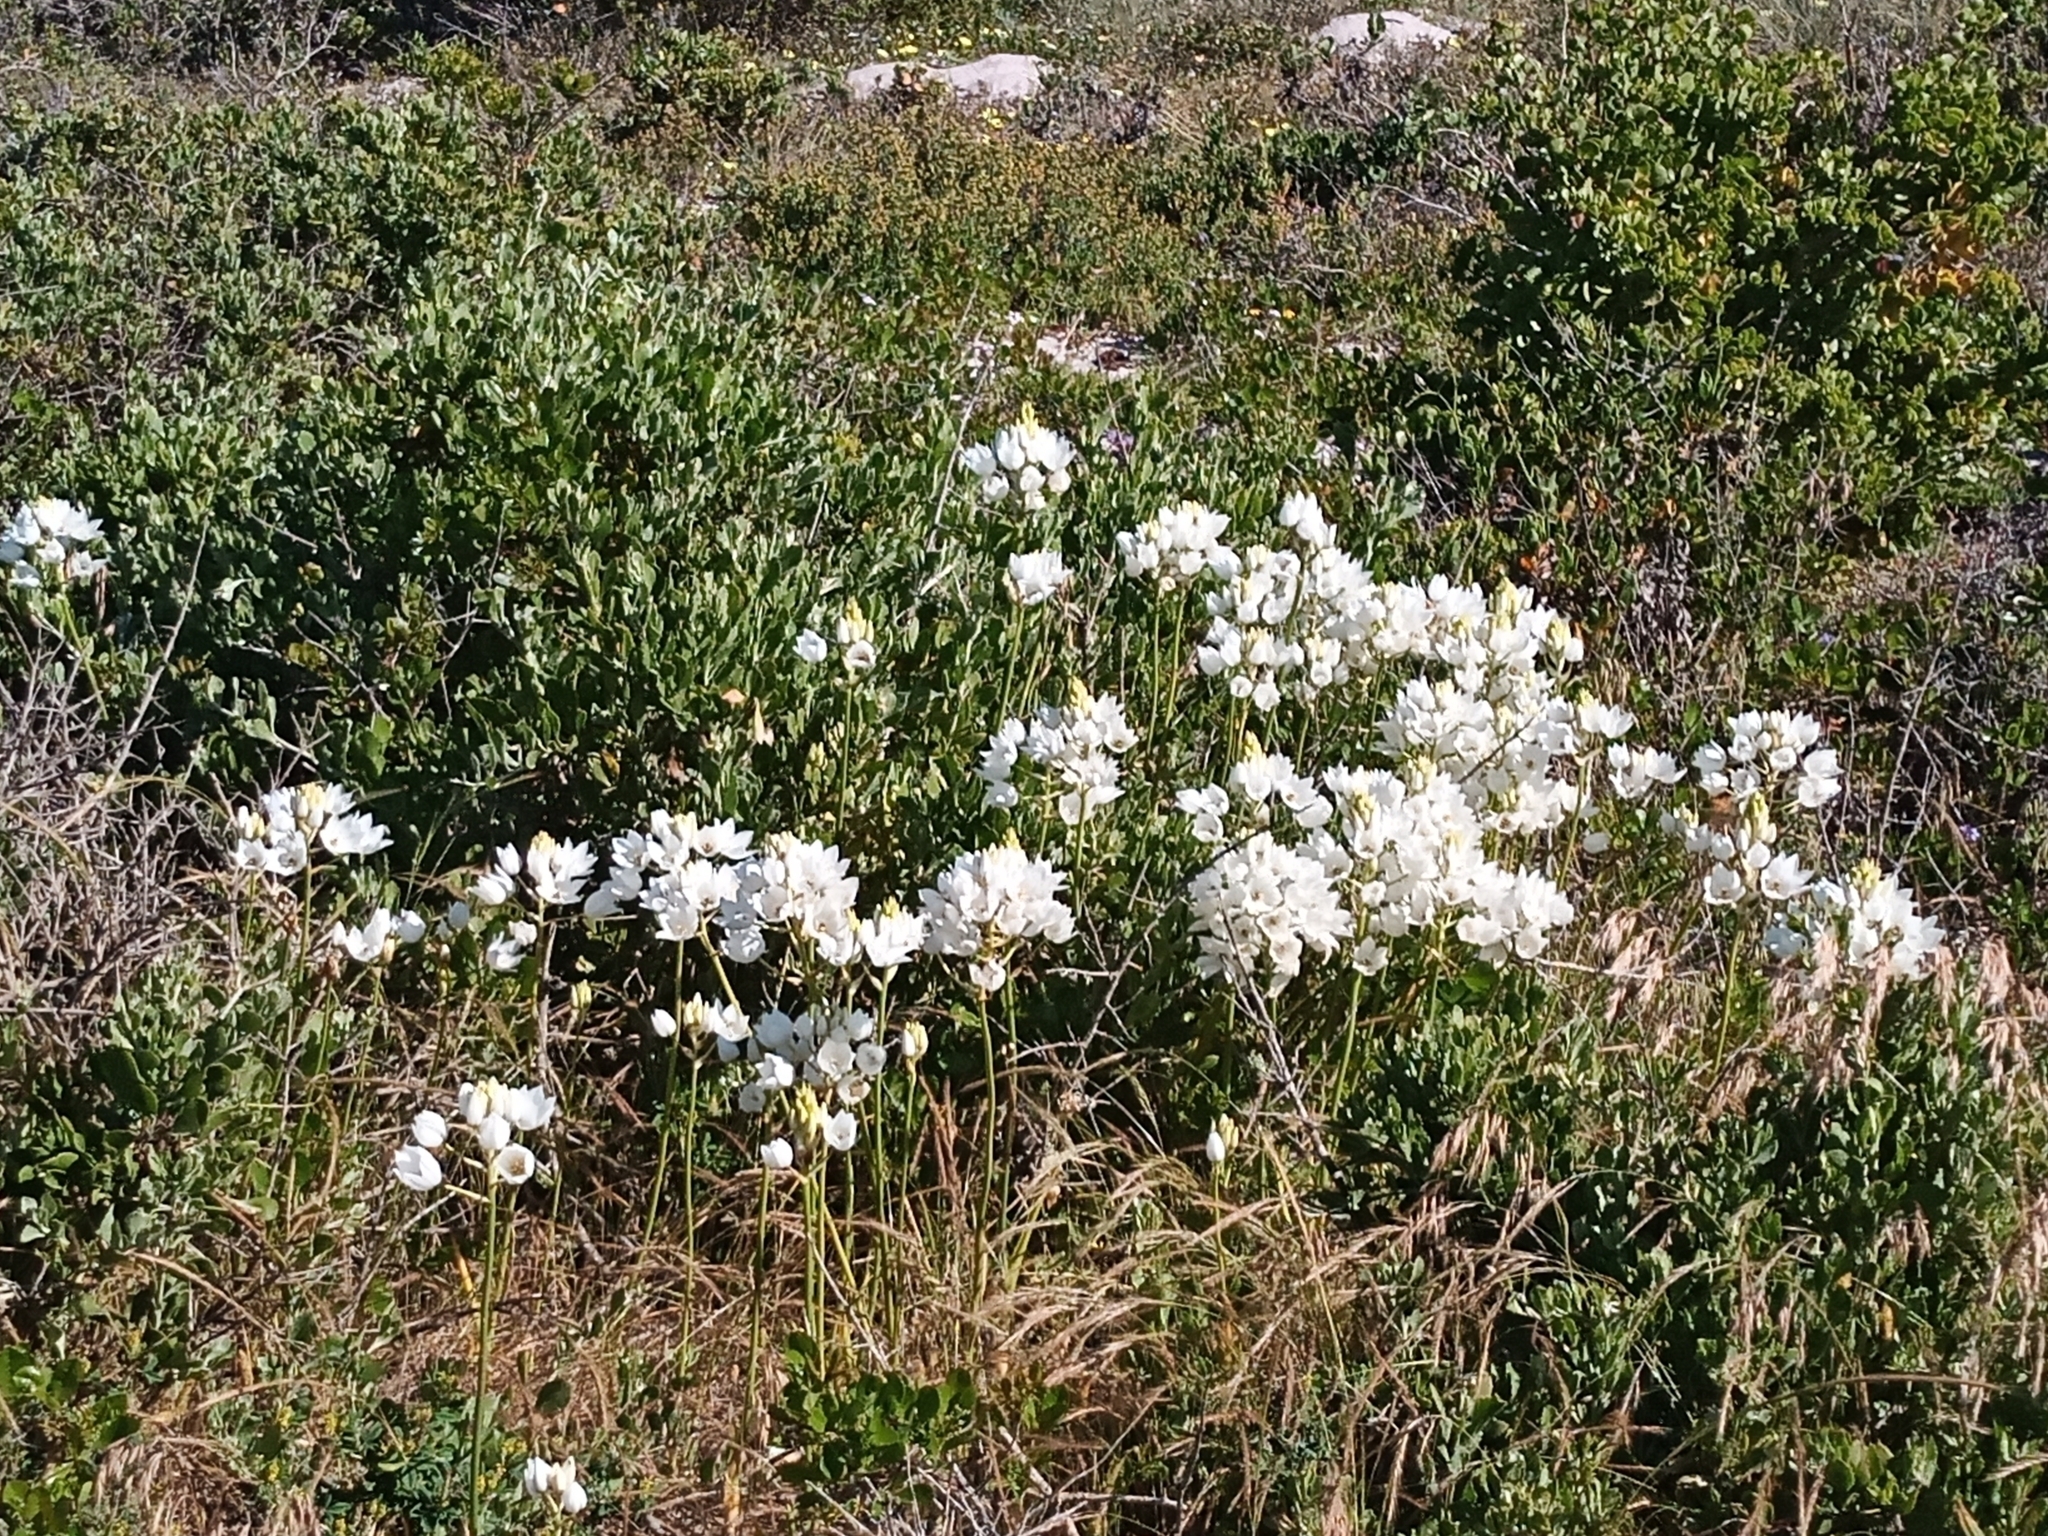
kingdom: Plantae
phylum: Tracheophyta
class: Liliopsida
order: Asparagales
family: Asparagaceae
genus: Ornithogalum
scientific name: Ornithogalum thyrsoides
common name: Chincherinchee
